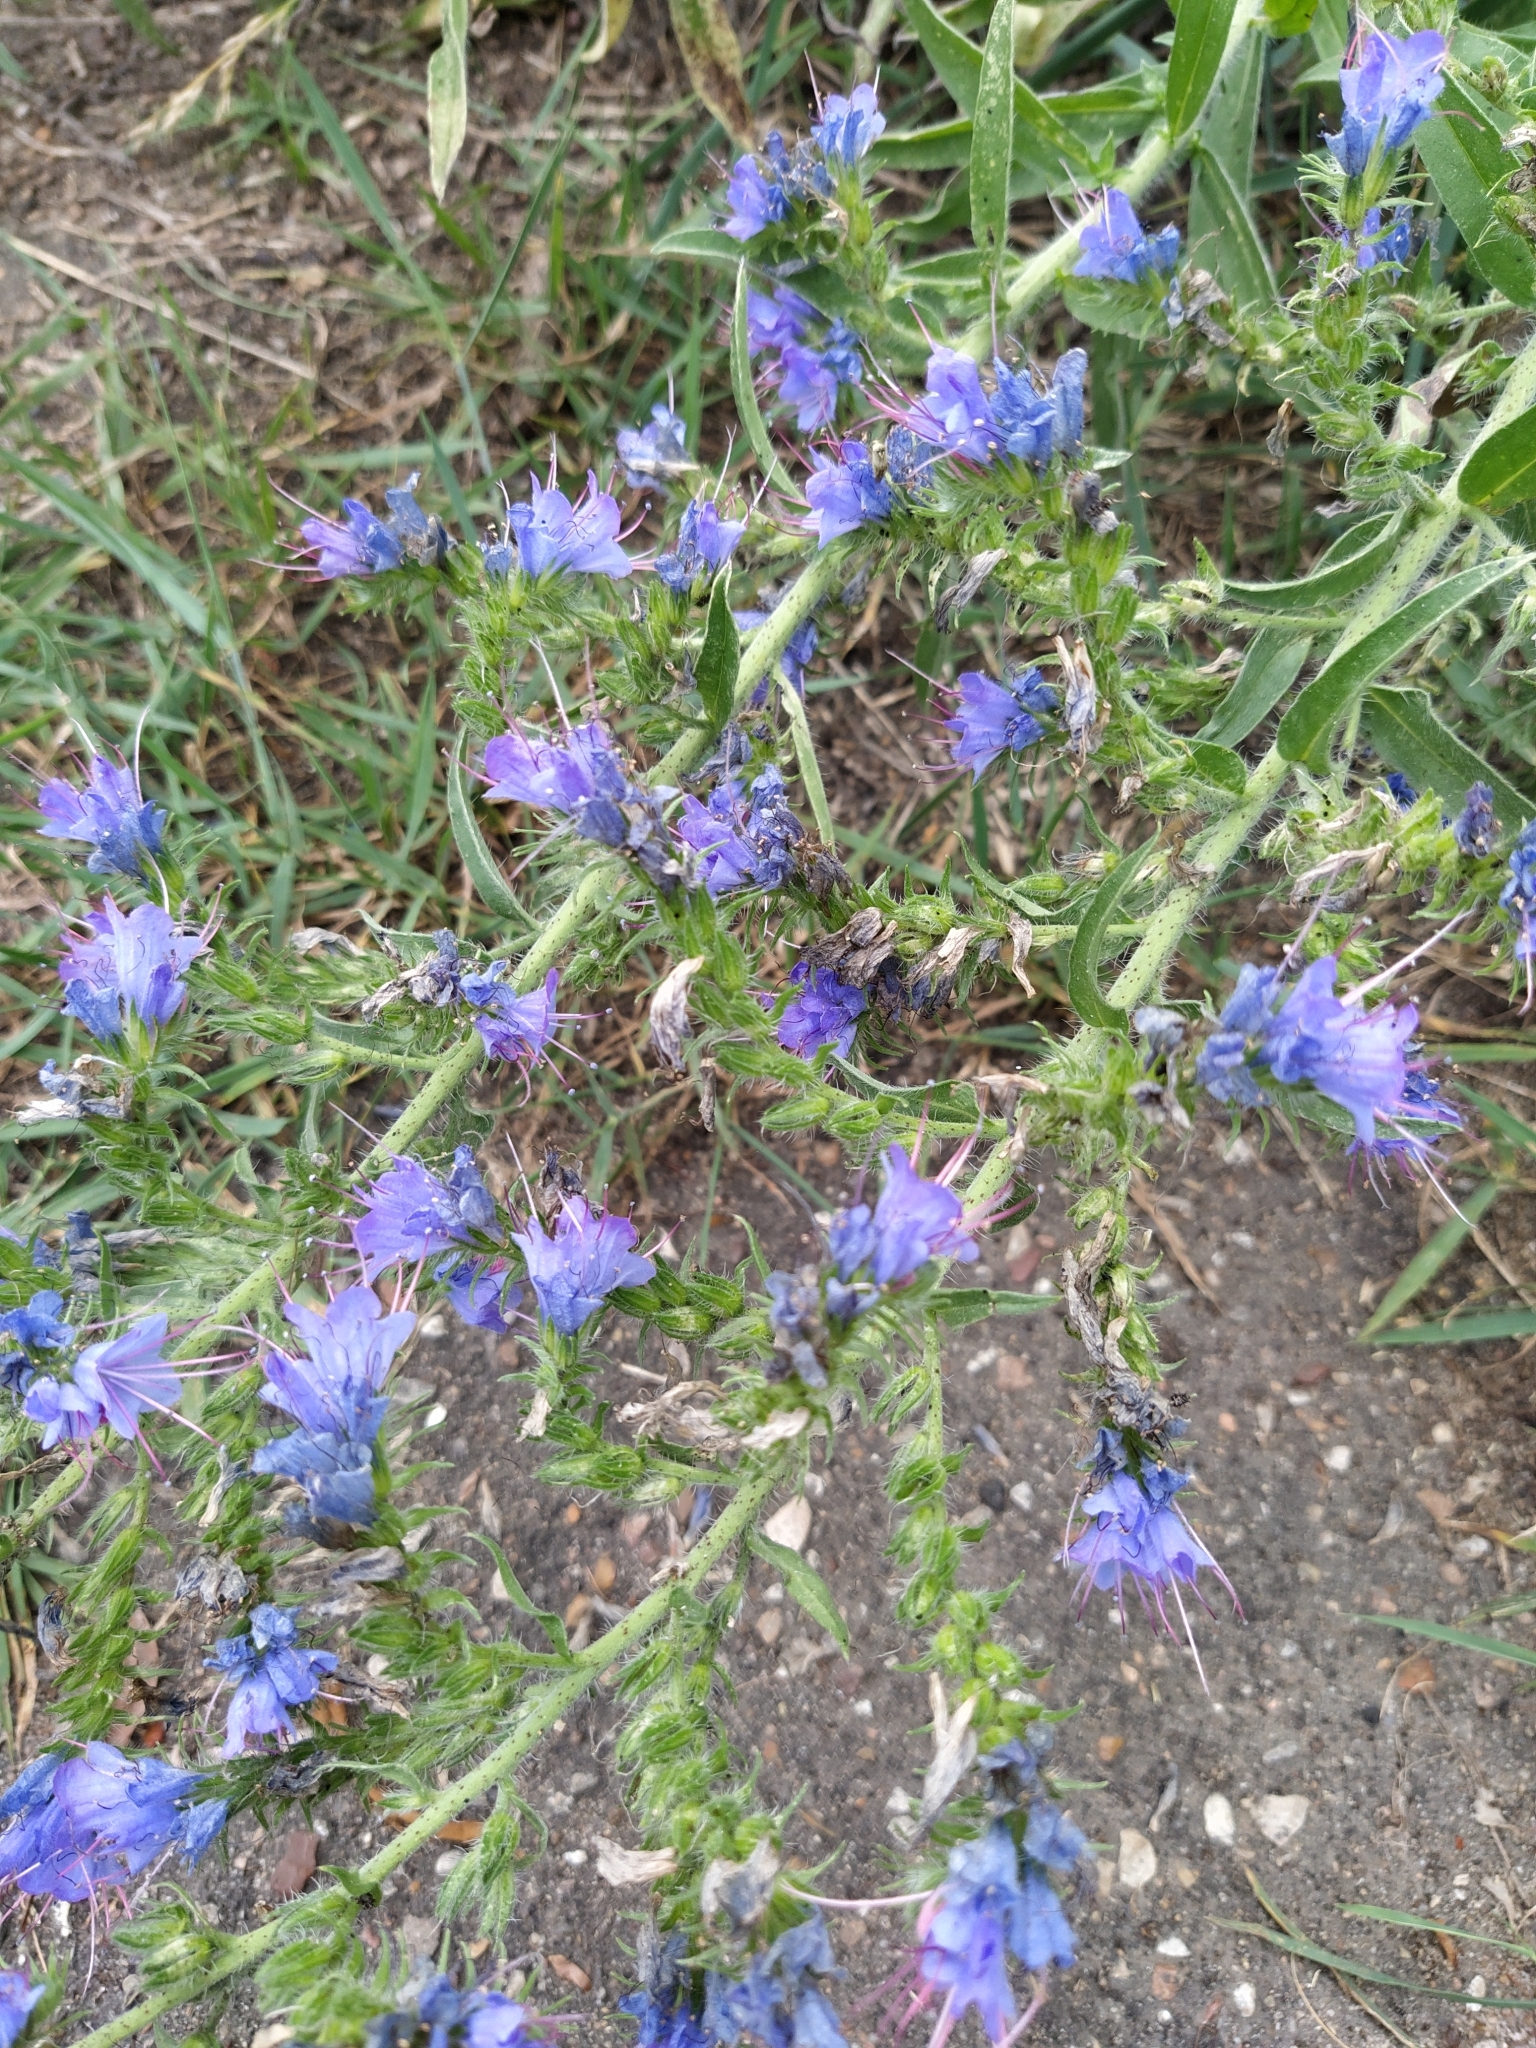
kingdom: Plantae
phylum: Tracheophyta
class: Magnoliopsida
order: Boraginales
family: Boraginaceae
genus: Echium
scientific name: Echium vulgare
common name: Common viper's bugloss
